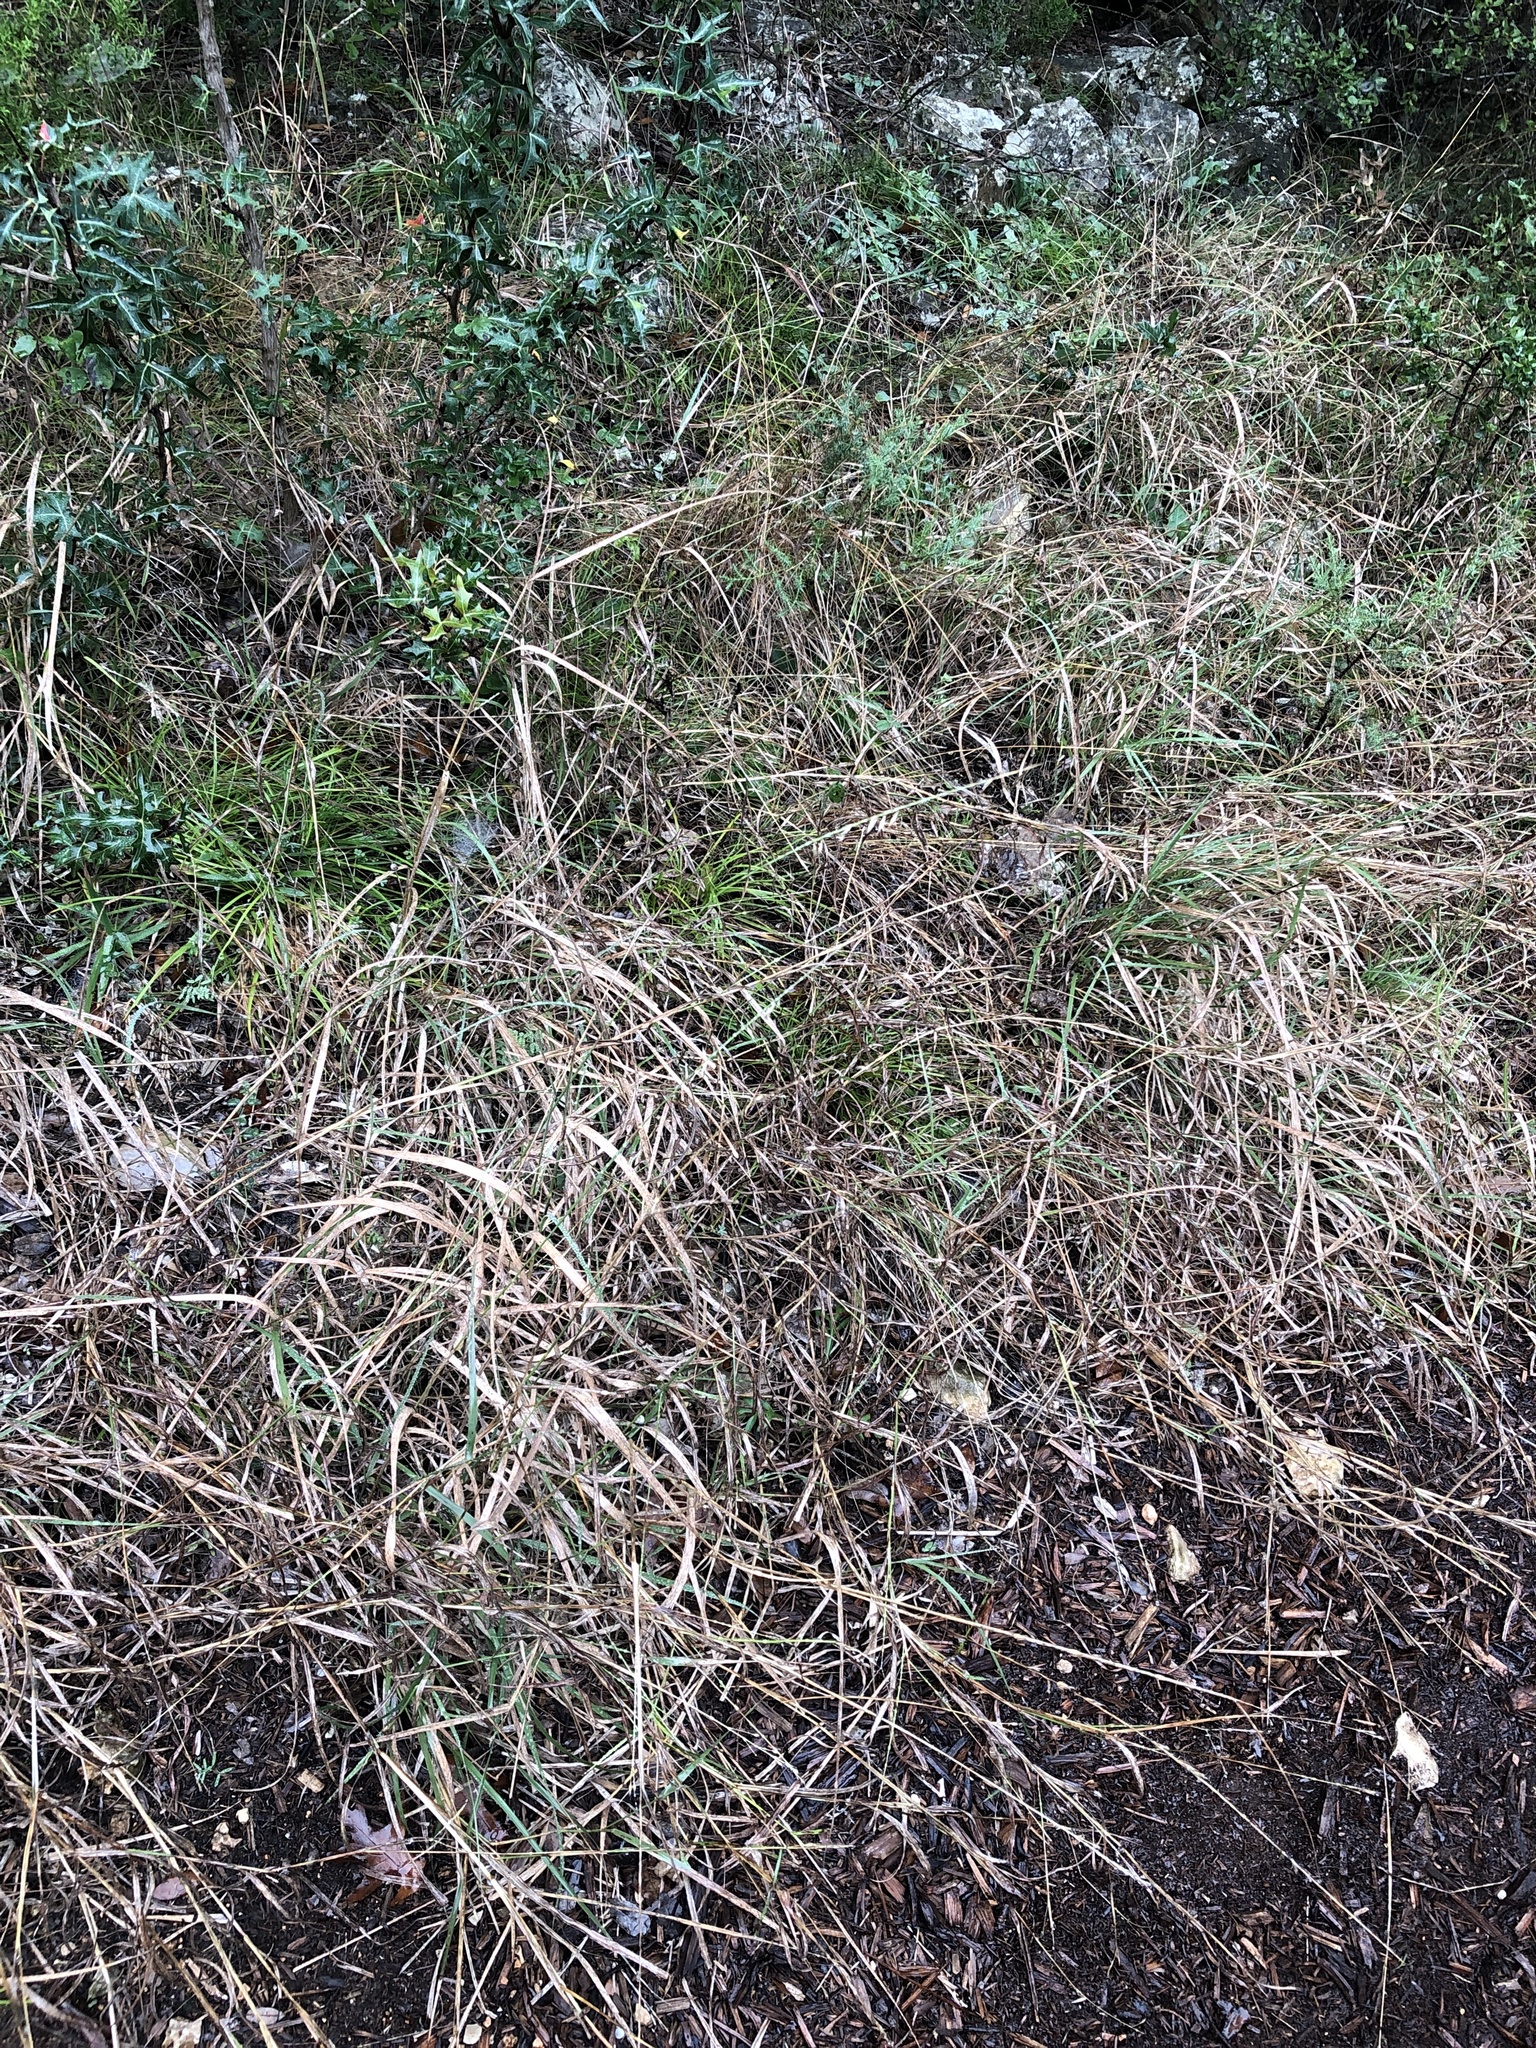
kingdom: Plantae
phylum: Tracheophyta
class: Liliopsida
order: Poales
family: Poaceae
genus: Bouteloua
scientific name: Bouteloua curtipendula
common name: Side-oats grama
